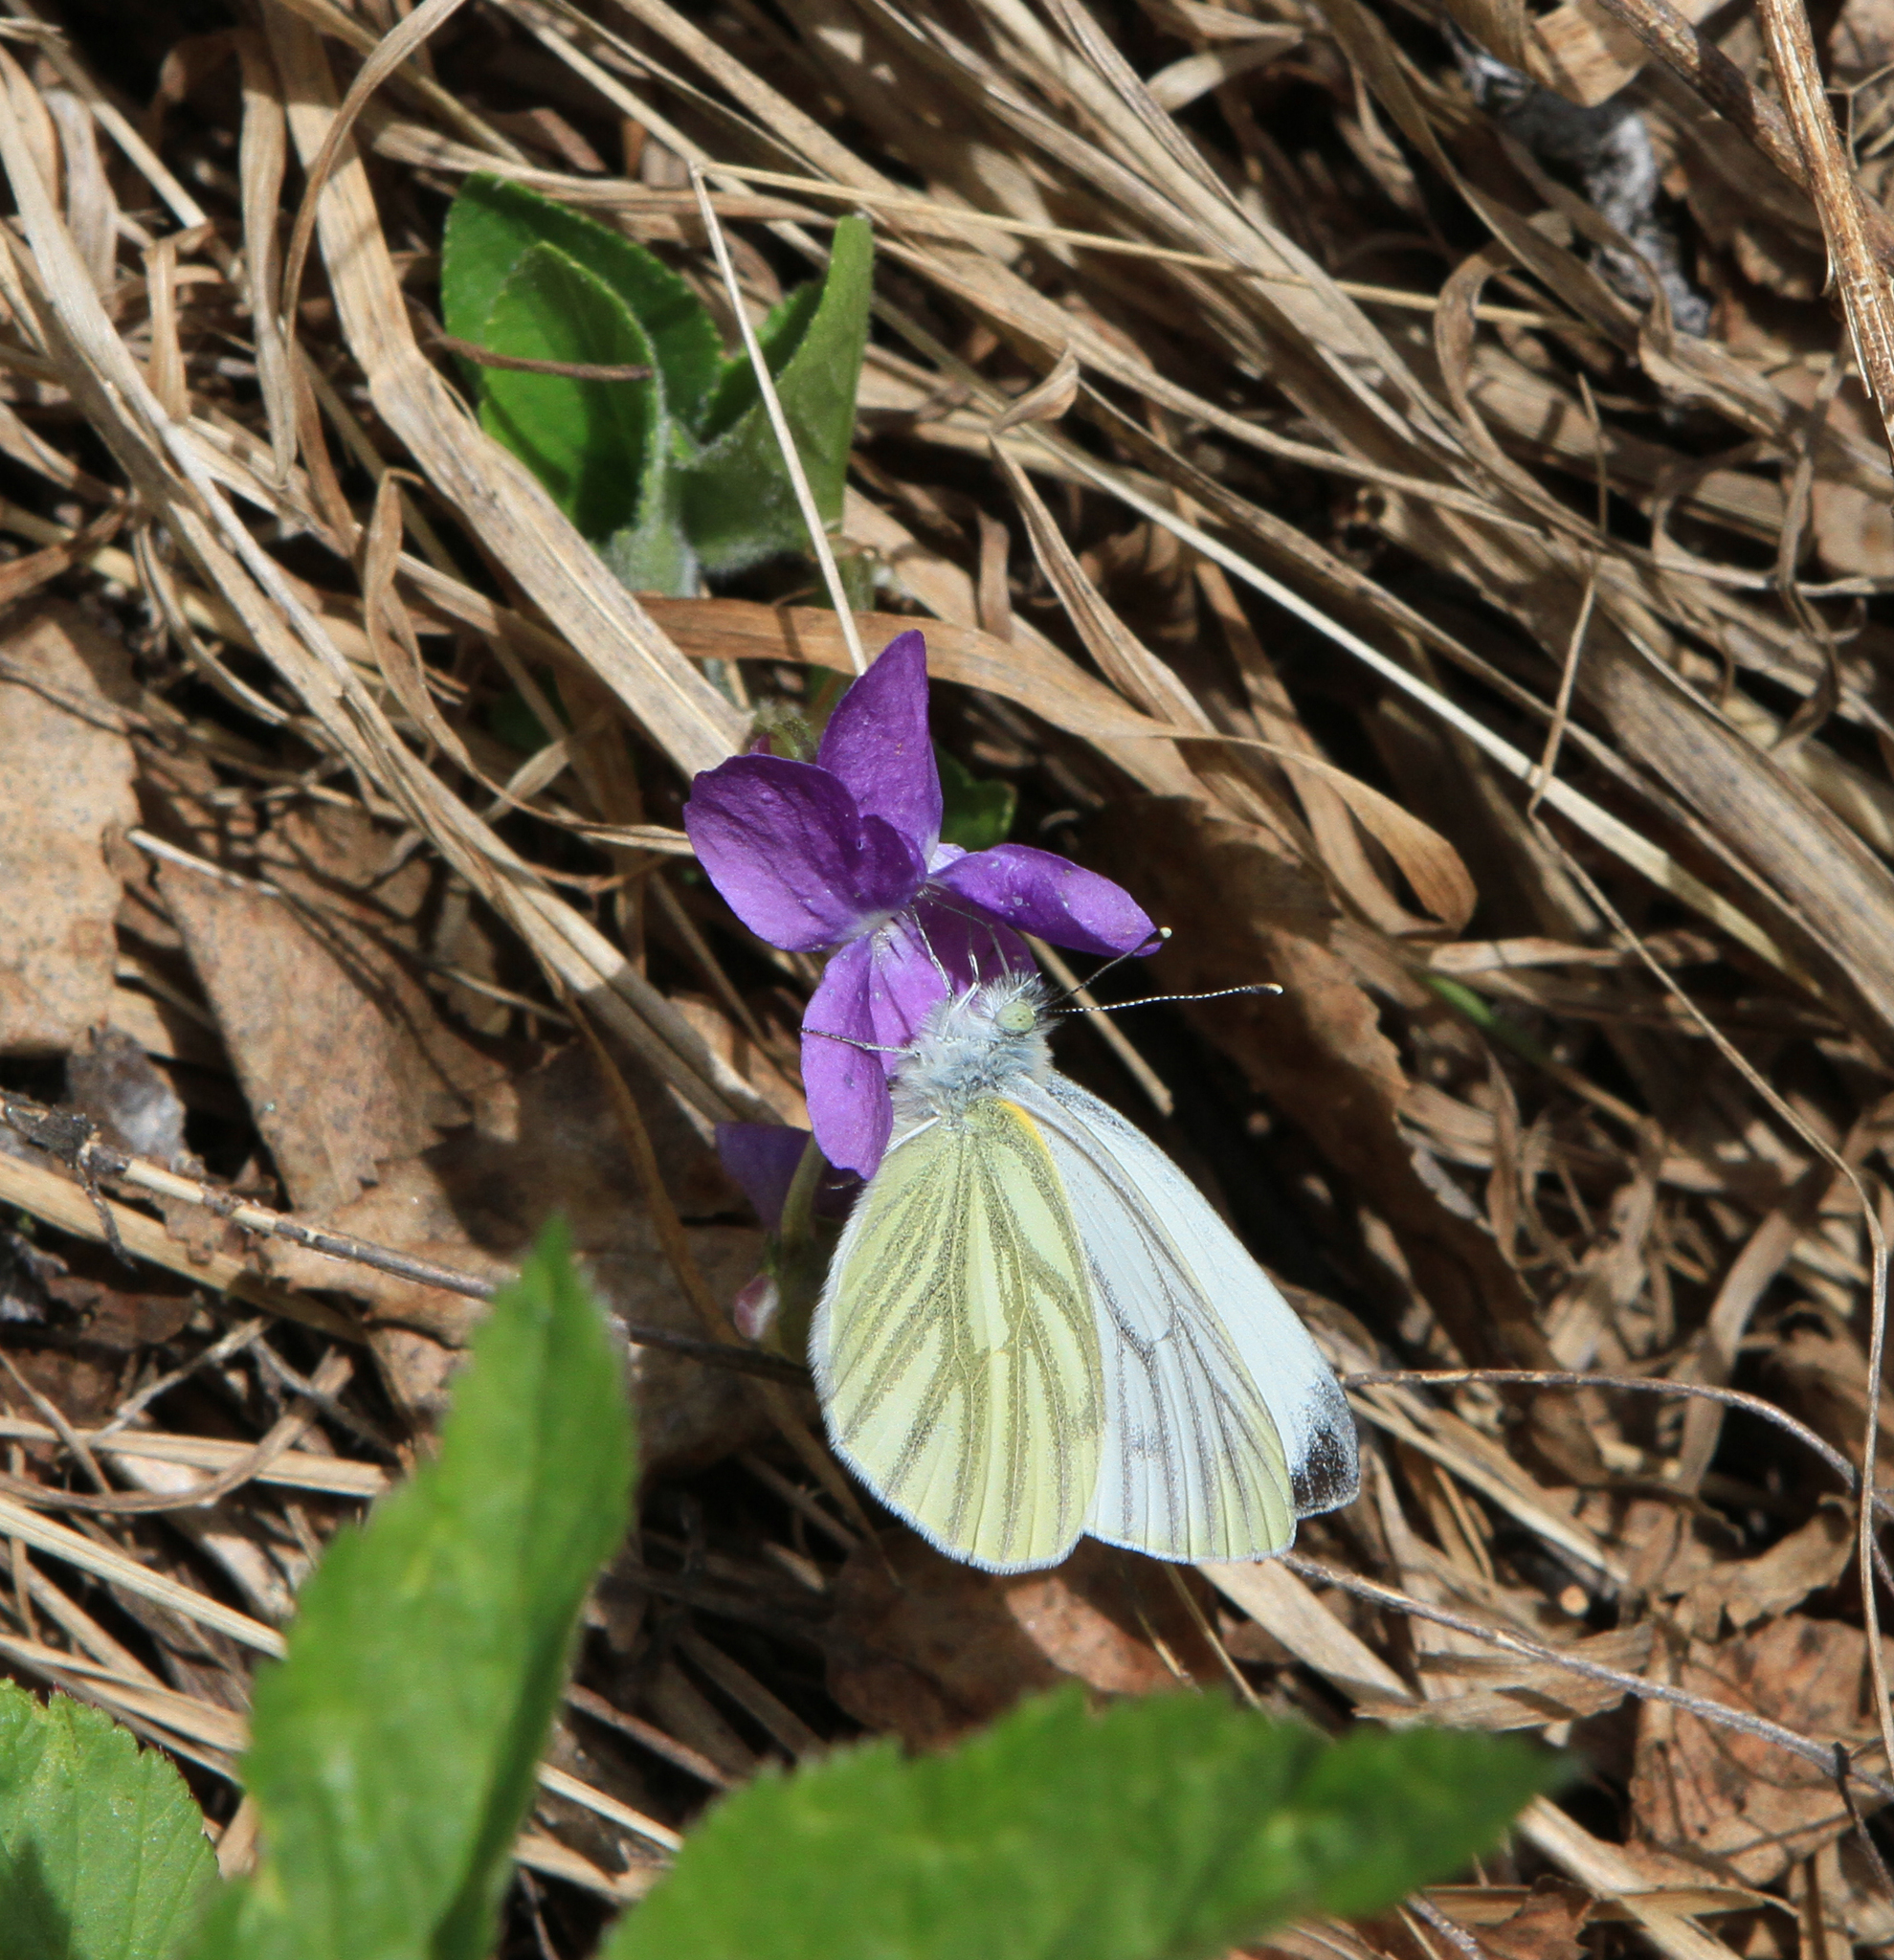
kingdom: Animalia
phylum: Arthropoda
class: Insecta
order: Lepidoptera
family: Pieridae
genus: Pieris
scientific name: Pieris napi
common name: Green-veined white
